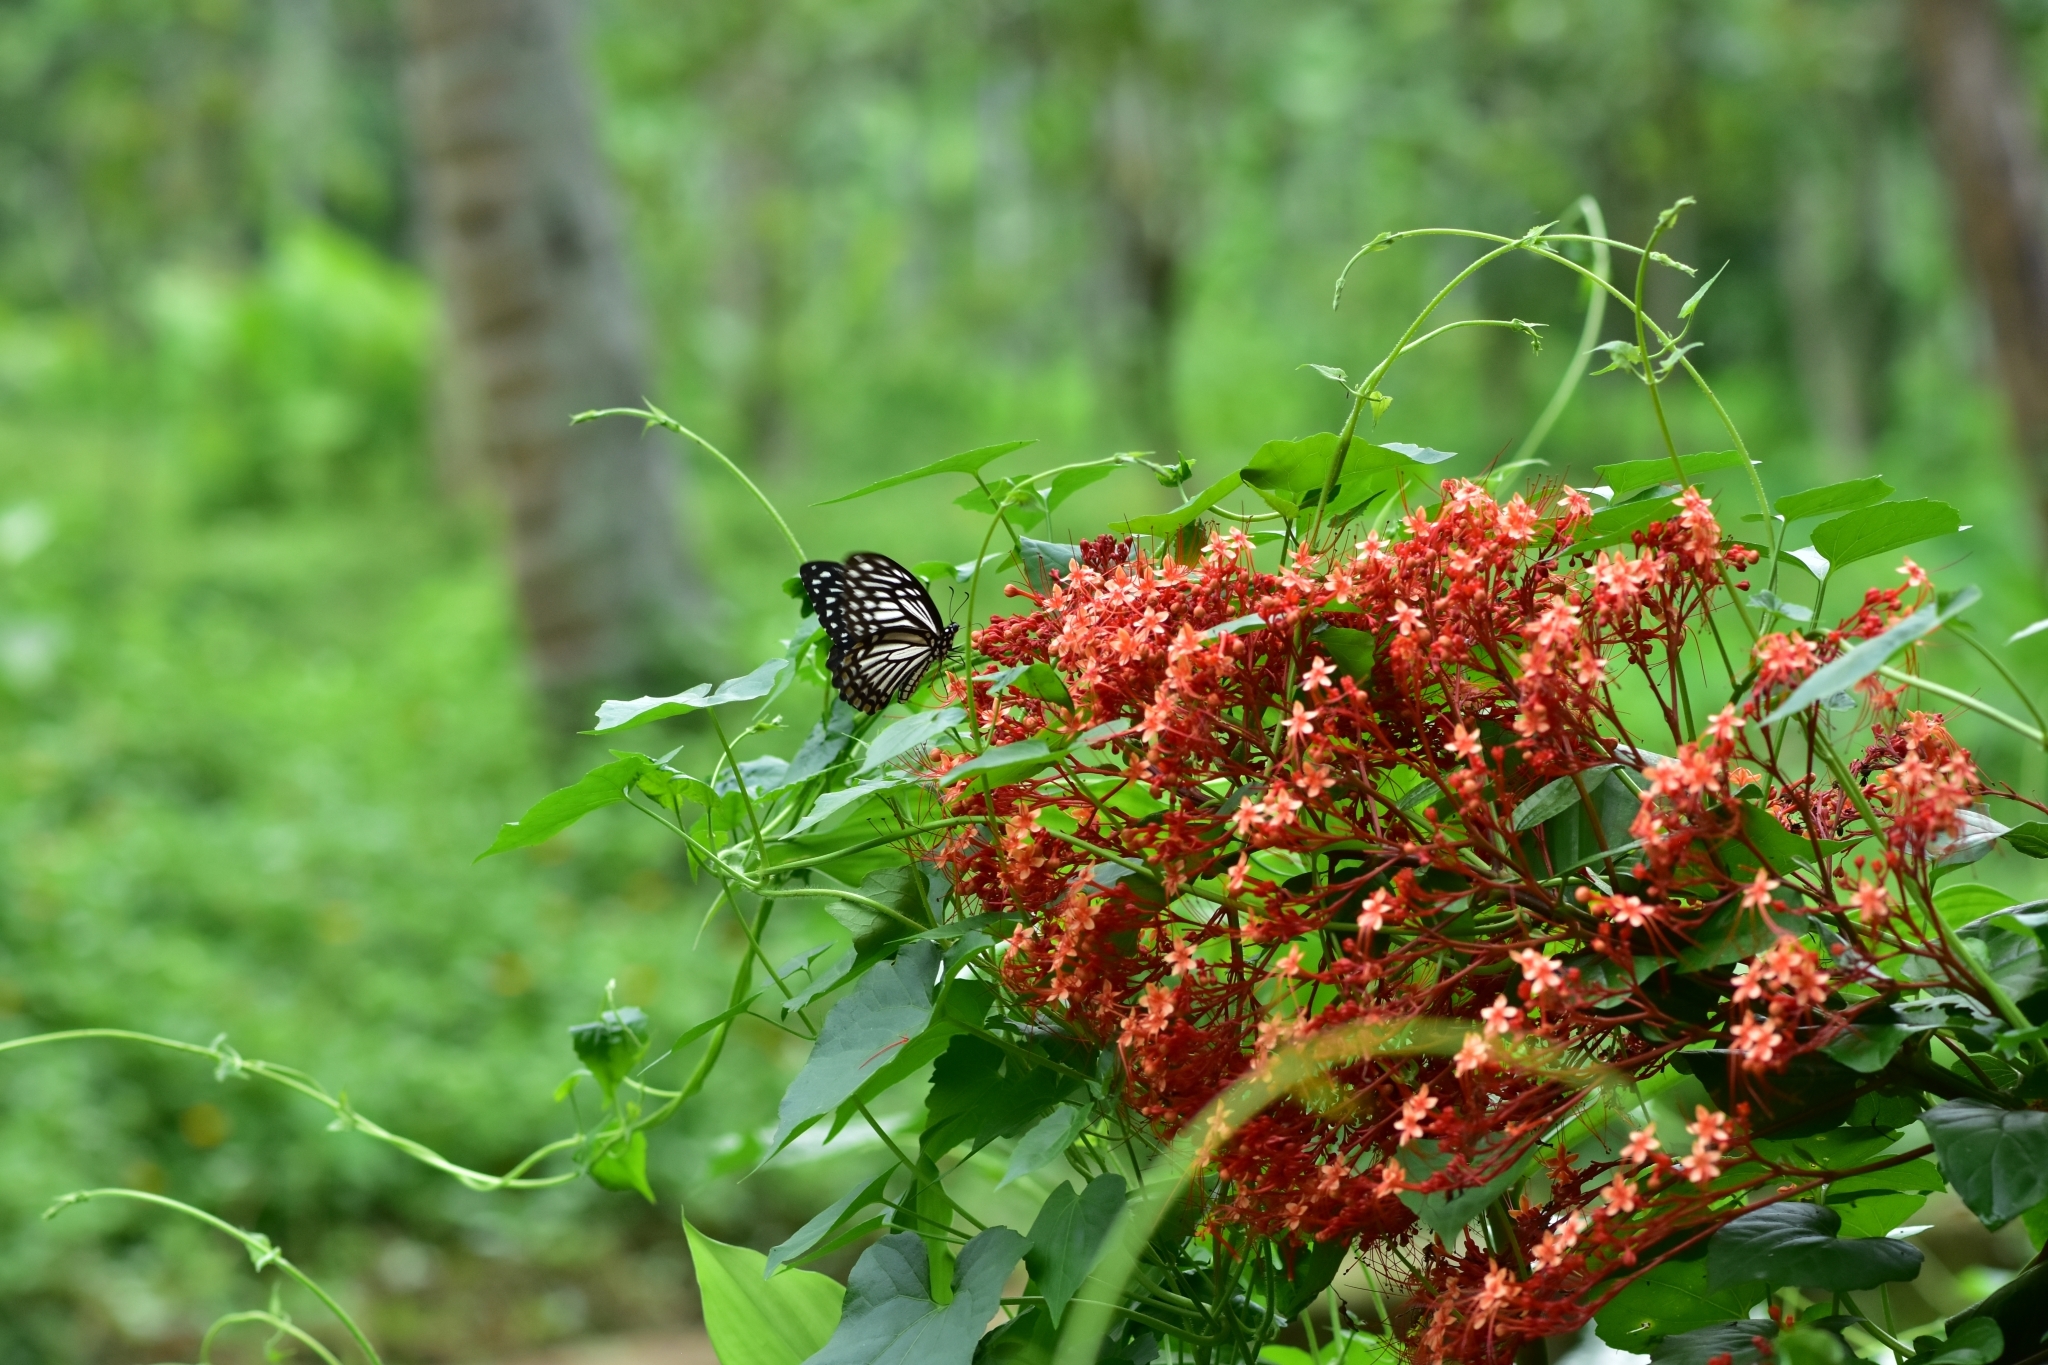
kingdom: Animalia
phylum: Arthropoda
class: Insecta
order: Lepidoptera
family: Papilionidae
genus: Chilasa
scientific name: Chilasa clytia
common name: Common mime
